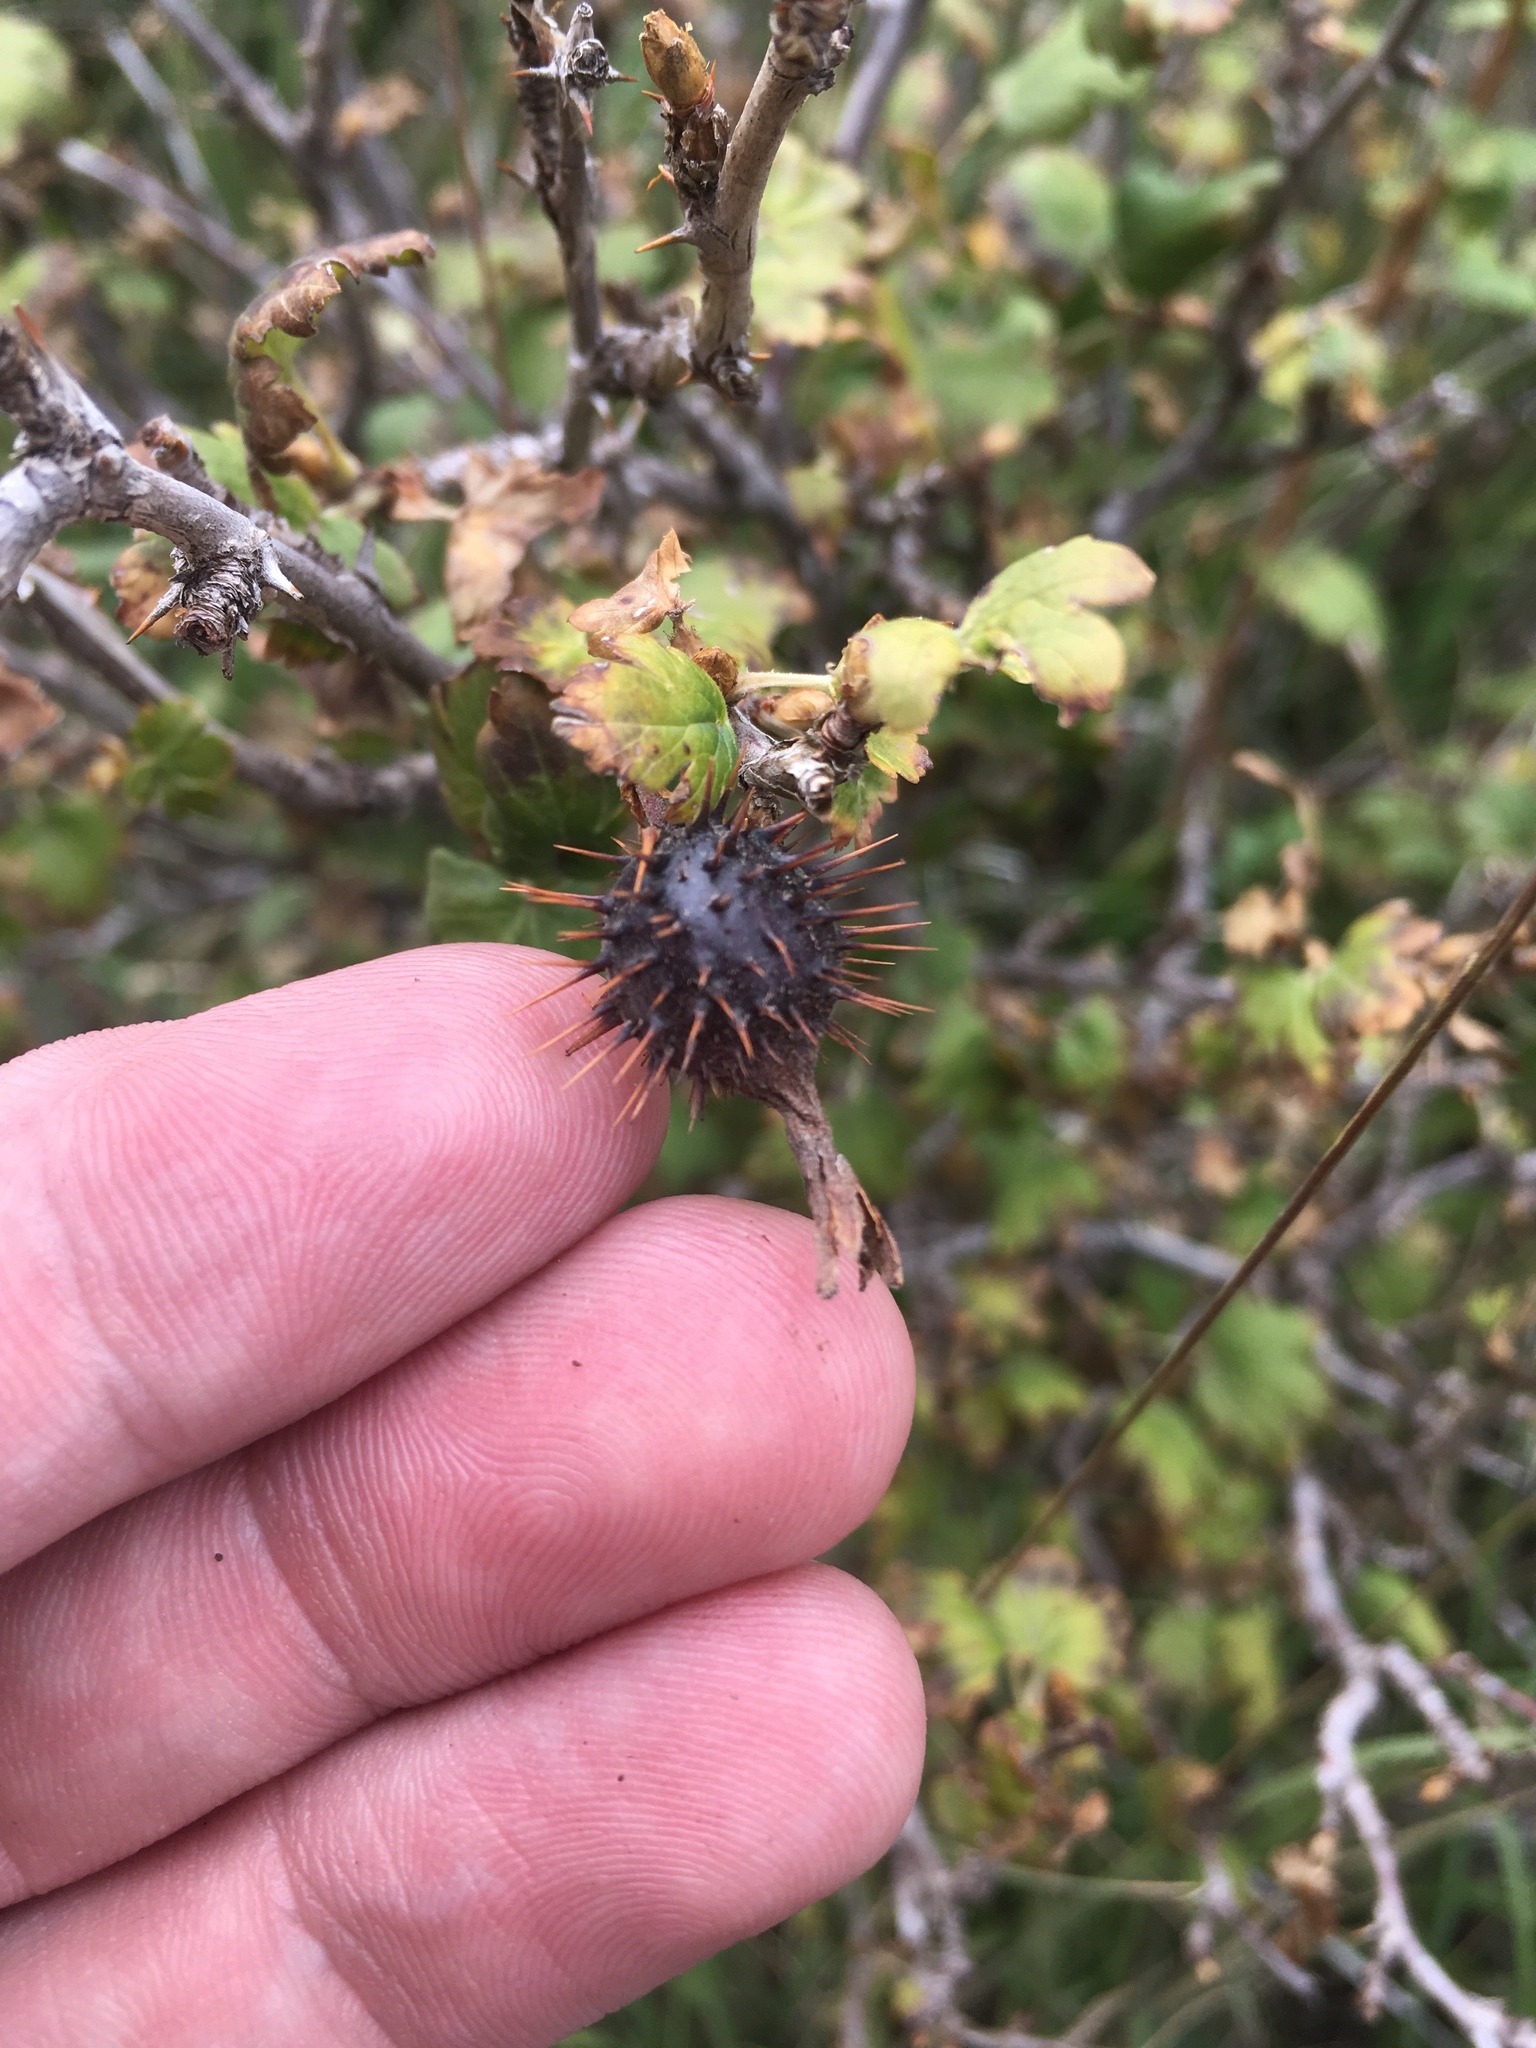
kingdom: Plantae
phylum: Tracheophyta
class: Magnoliopsida
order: Saxifragales
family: Grossulariaceae
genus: Ribes
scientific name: Ribes pinetorum
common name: Orange gooseberry
